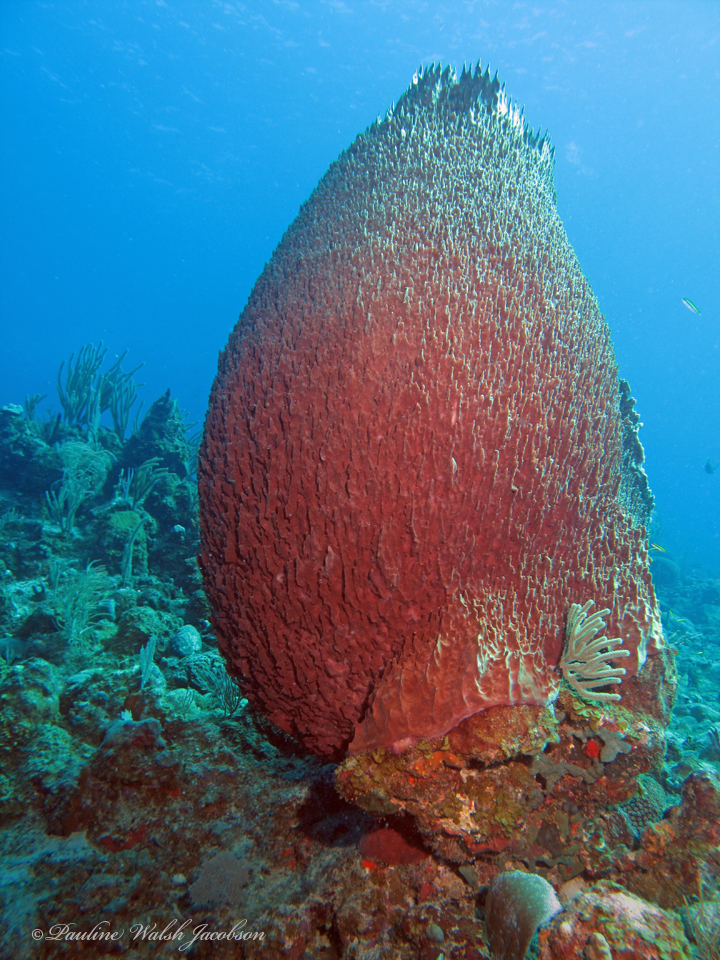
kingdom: Animalia
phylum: Porifera
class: Demospongiae
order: Haplosclerida
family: Petrosiidae
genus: Xestospongia
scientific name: Xestospongia muta
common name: Giant barrel sponge
